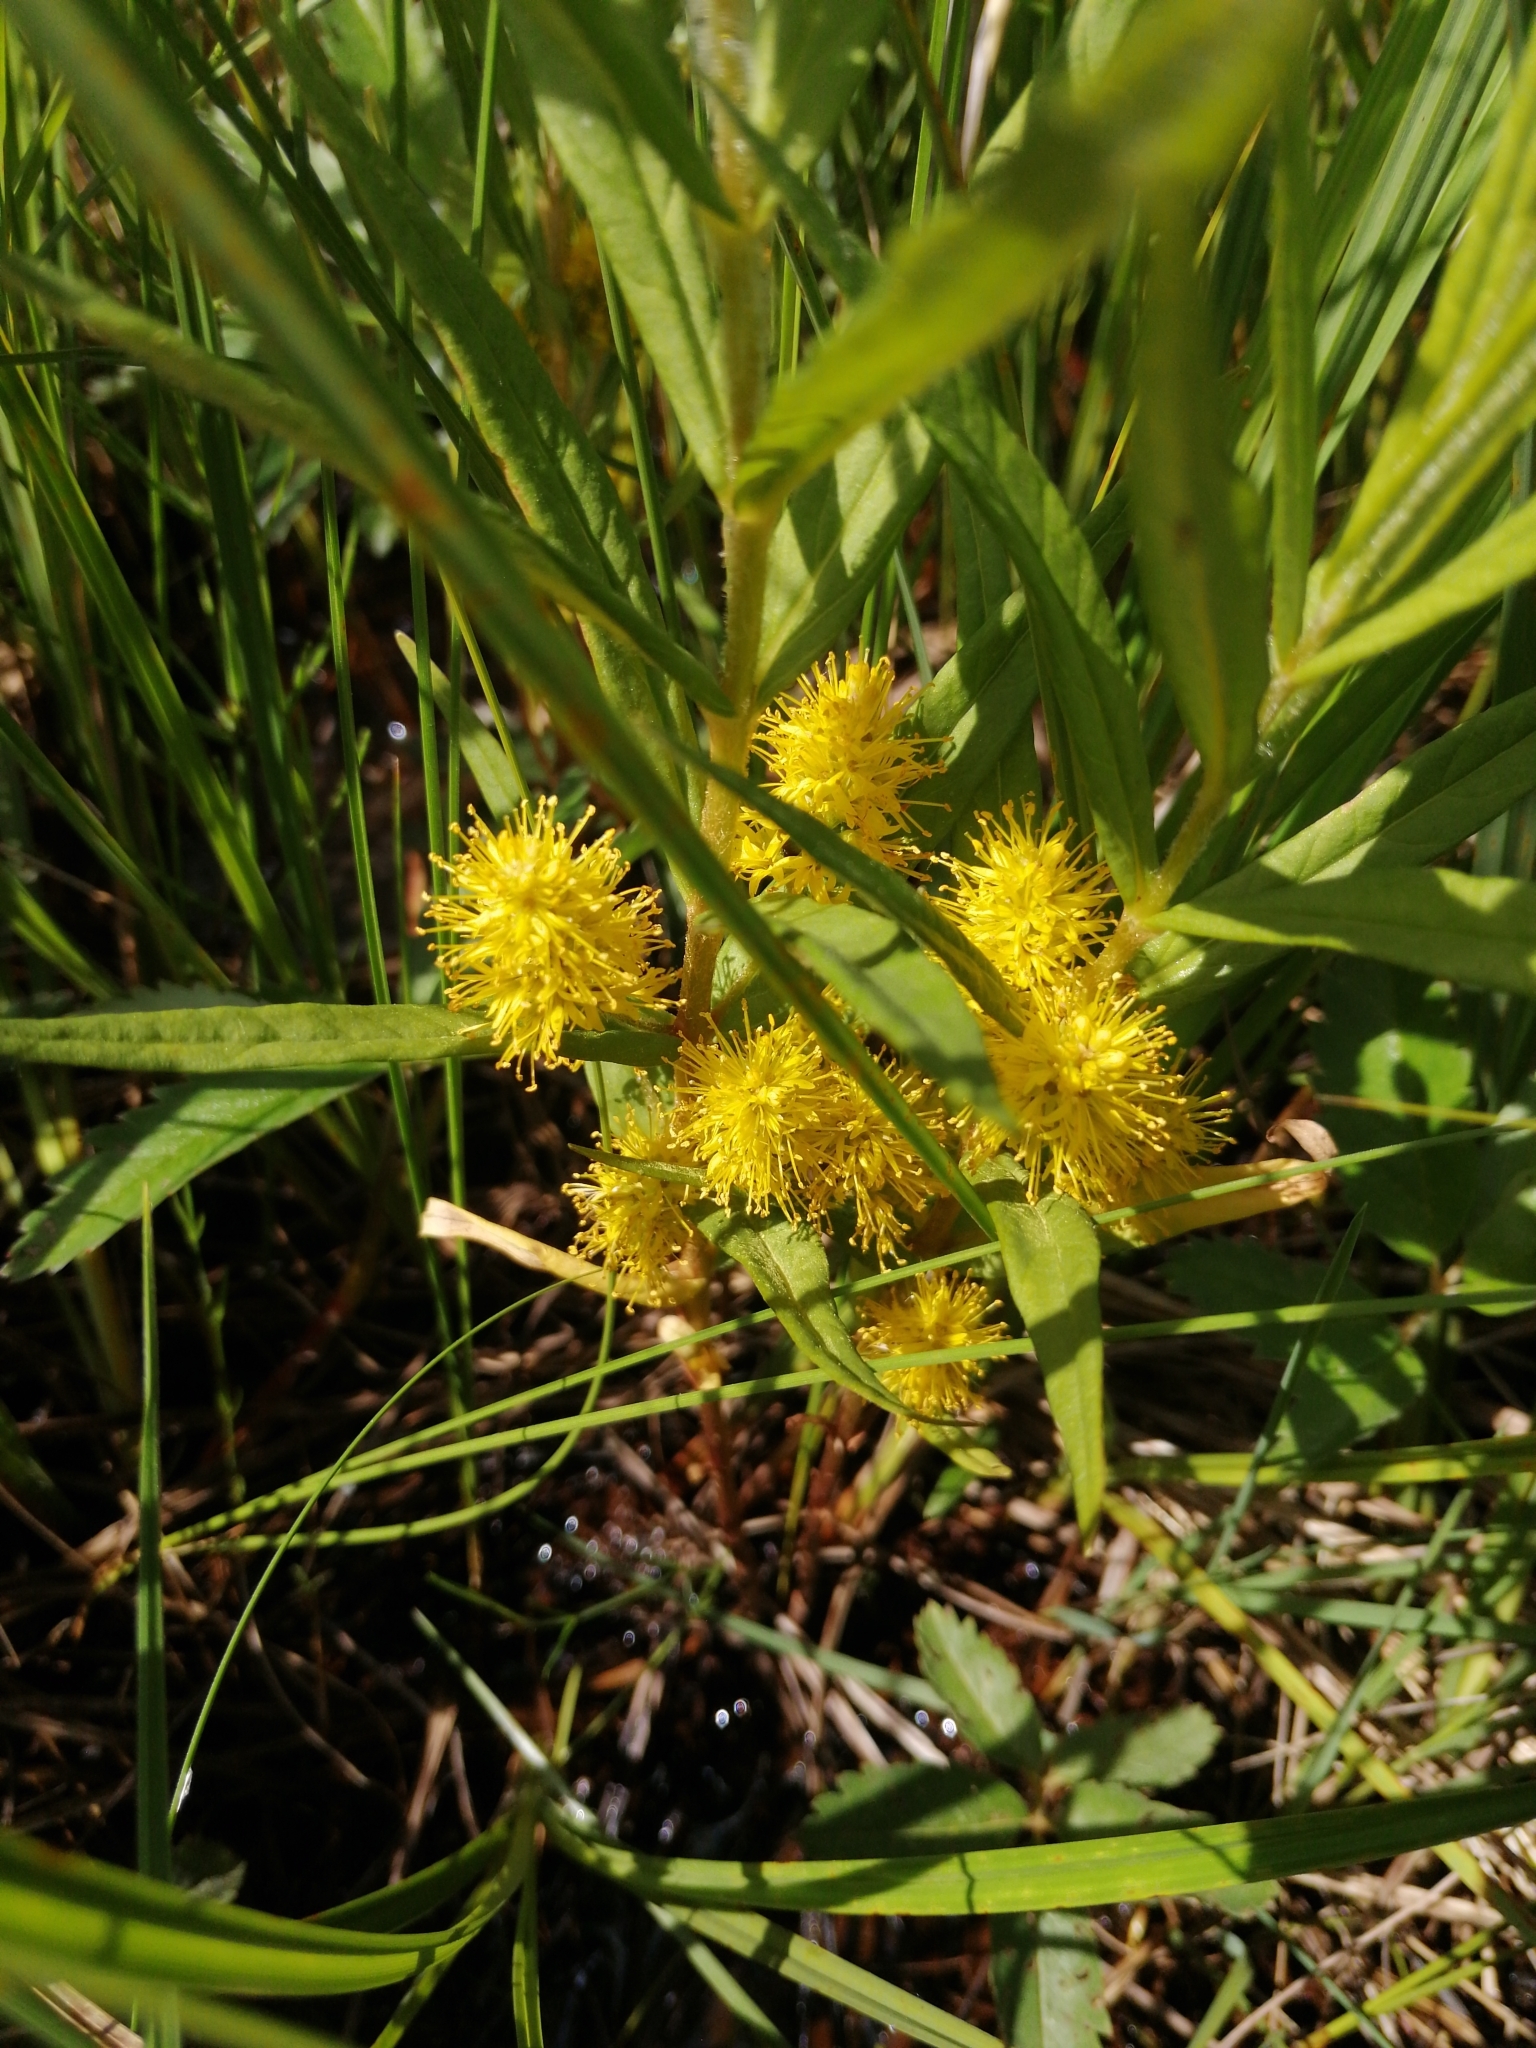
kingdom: Plantae
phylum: Tracheophyta
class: Magnoliopsida
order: Ericales
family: Primulaceae
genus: Lysimachia
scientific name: Lysimachia thyrsiflora
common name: Tufted loosestrife
